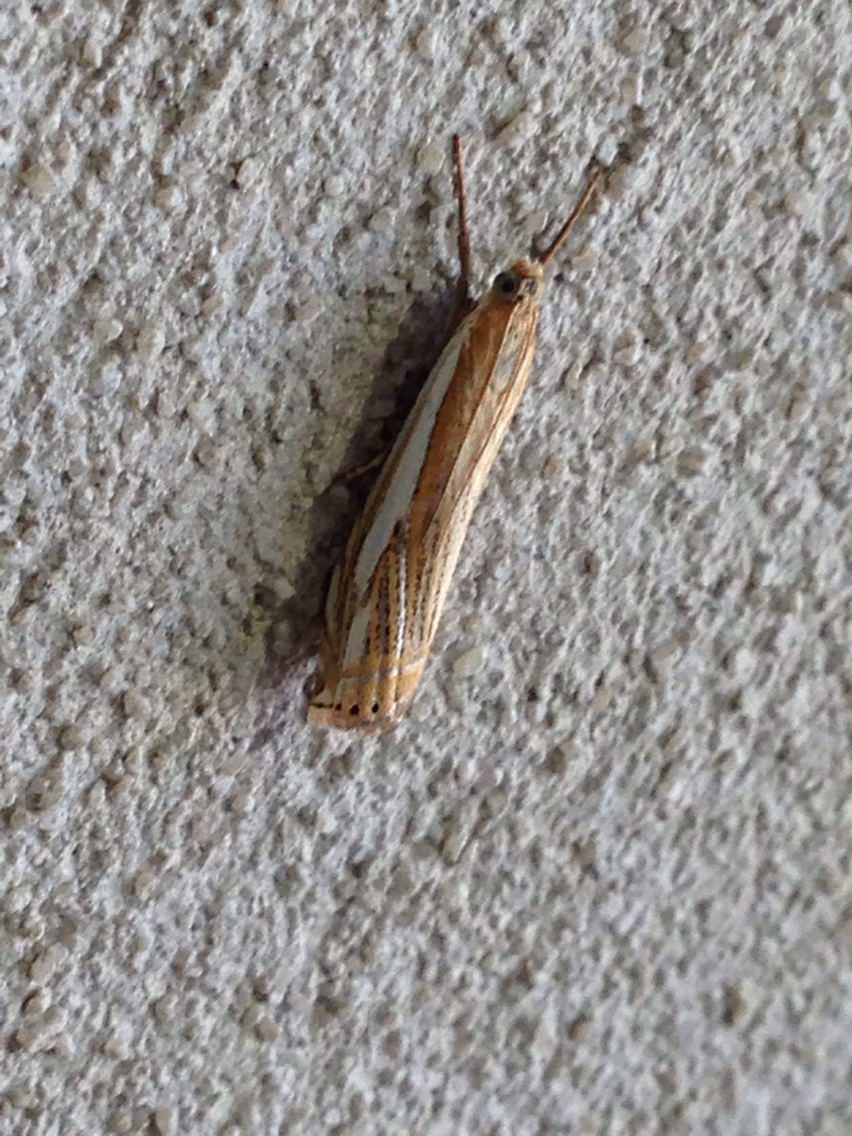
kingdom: Animalia
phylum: Arthropoda
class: Insecta
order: Lepidoptera
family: Crambidae
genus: Crambus
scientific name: Crambus saltuellus
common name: Pasture grass-veneer
